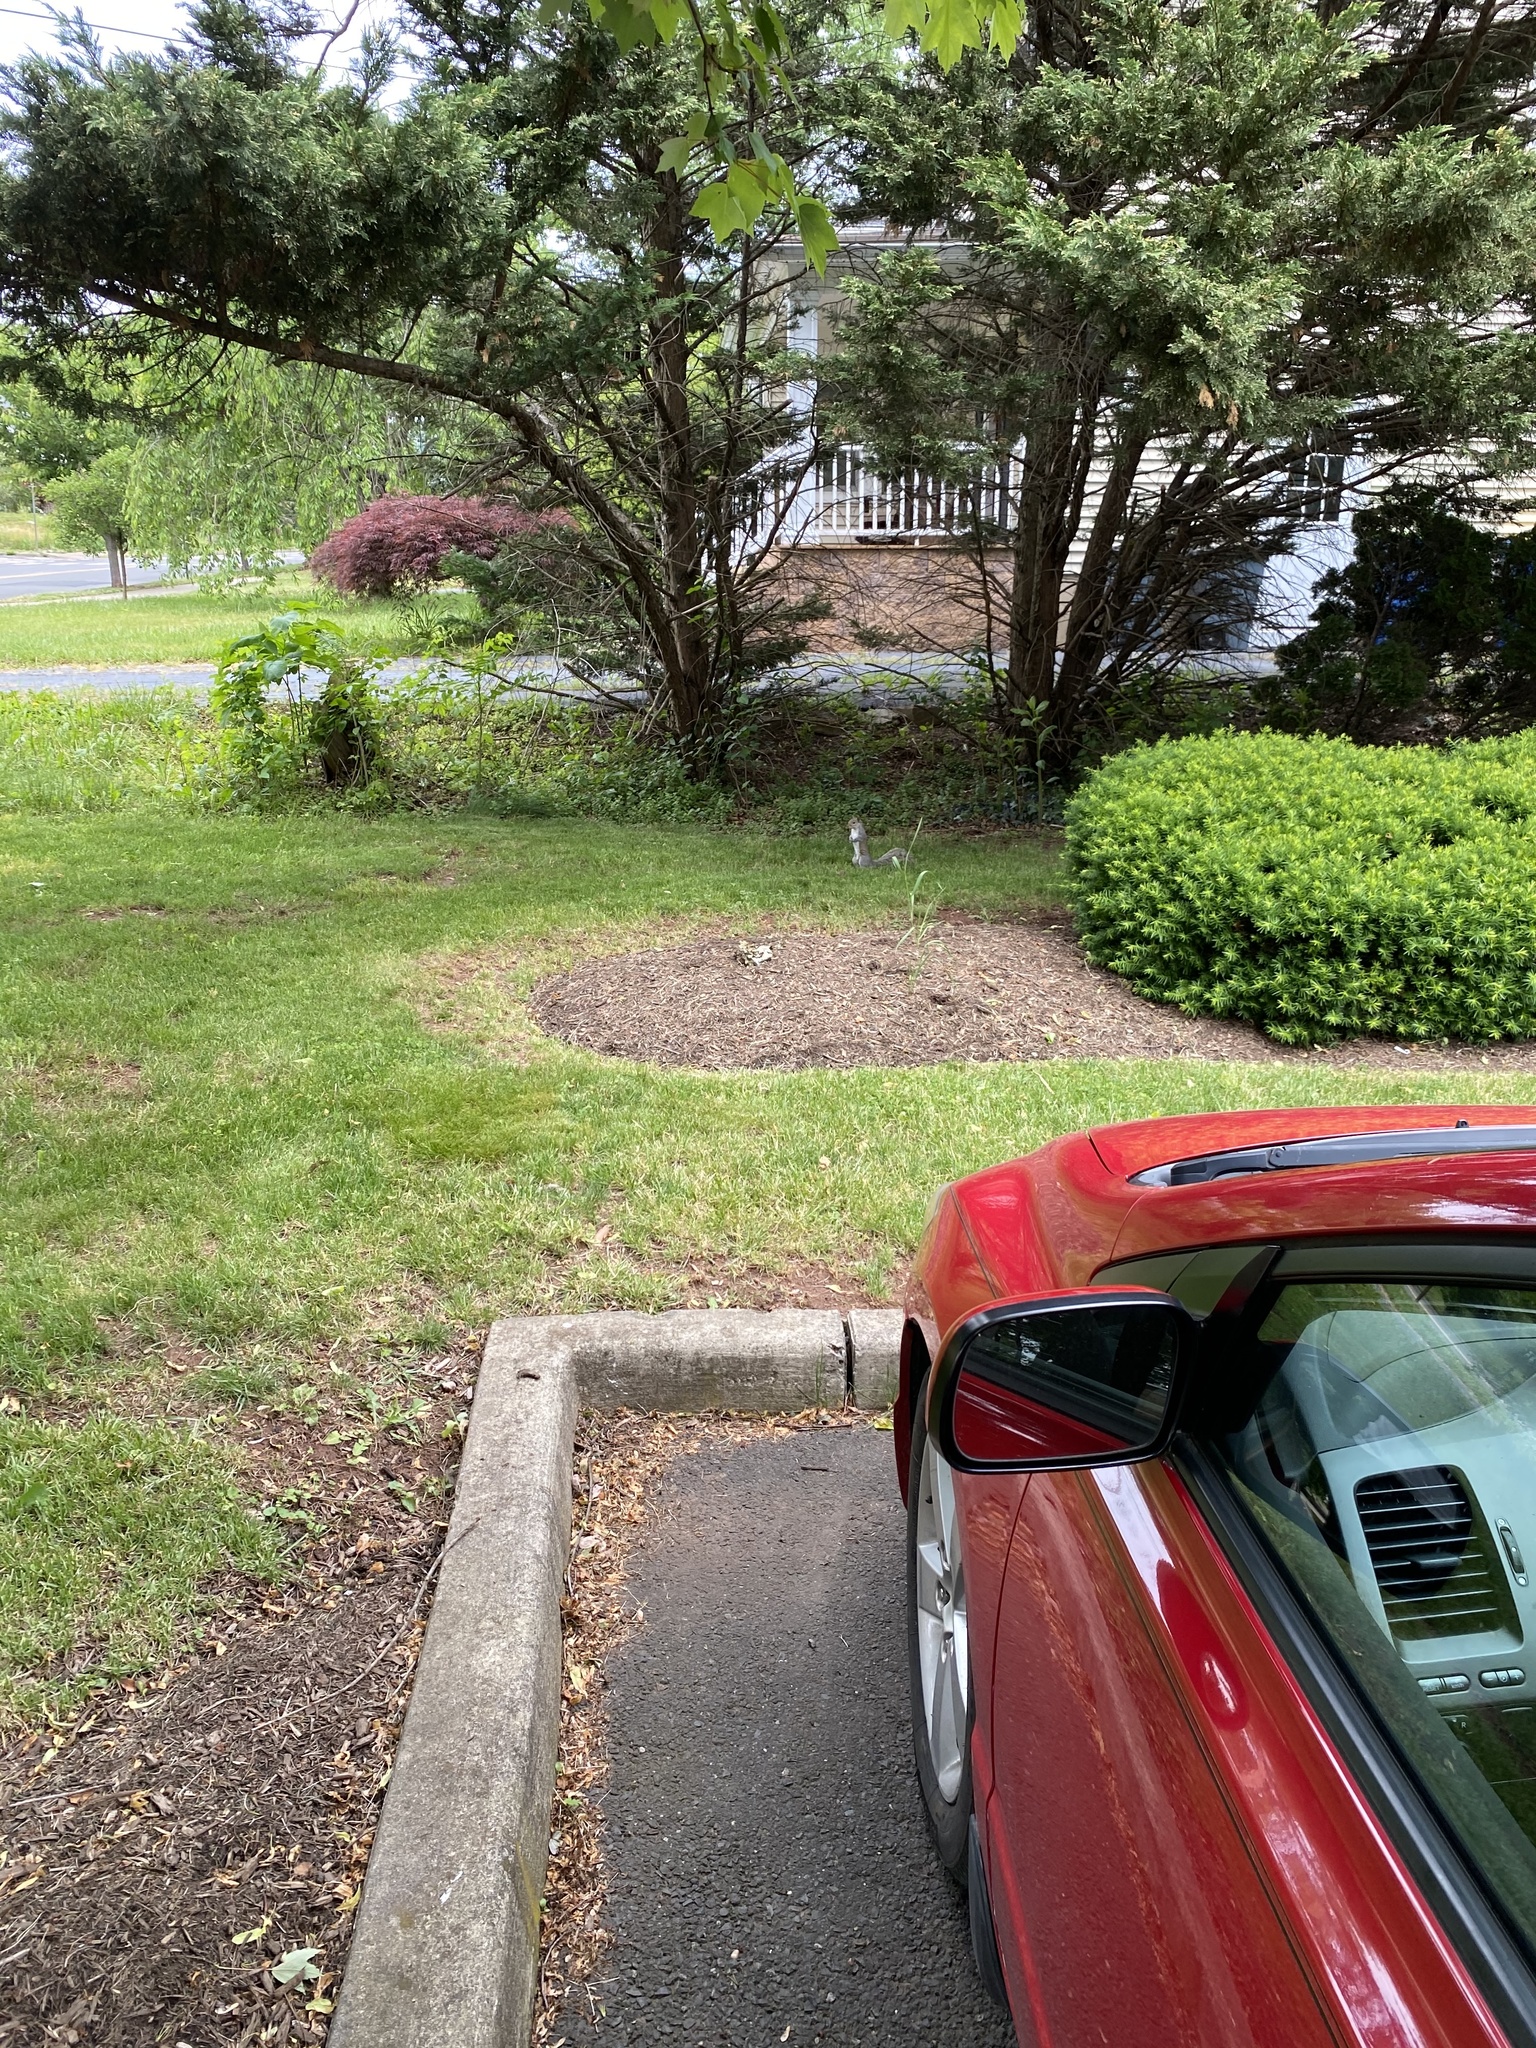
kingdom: Animalia
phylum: Chordata
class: Mammalia
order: Rodentia
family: Sciuridae
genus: Sciurus
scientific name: Sciurus carolinensis
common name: Eastern gray squirrel
